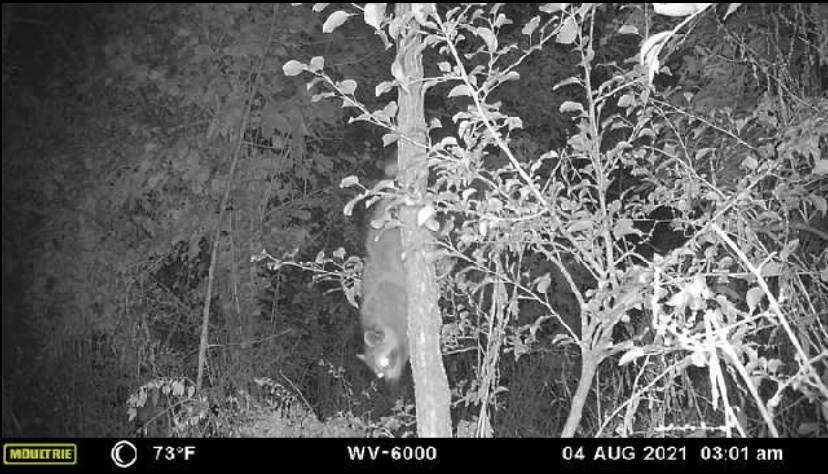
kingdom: Animalia
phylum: Chordata
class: Mammalia
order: Carnivora
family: Procyonidae
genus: Procyon
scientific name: Procyon lotor
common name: Raccoon
